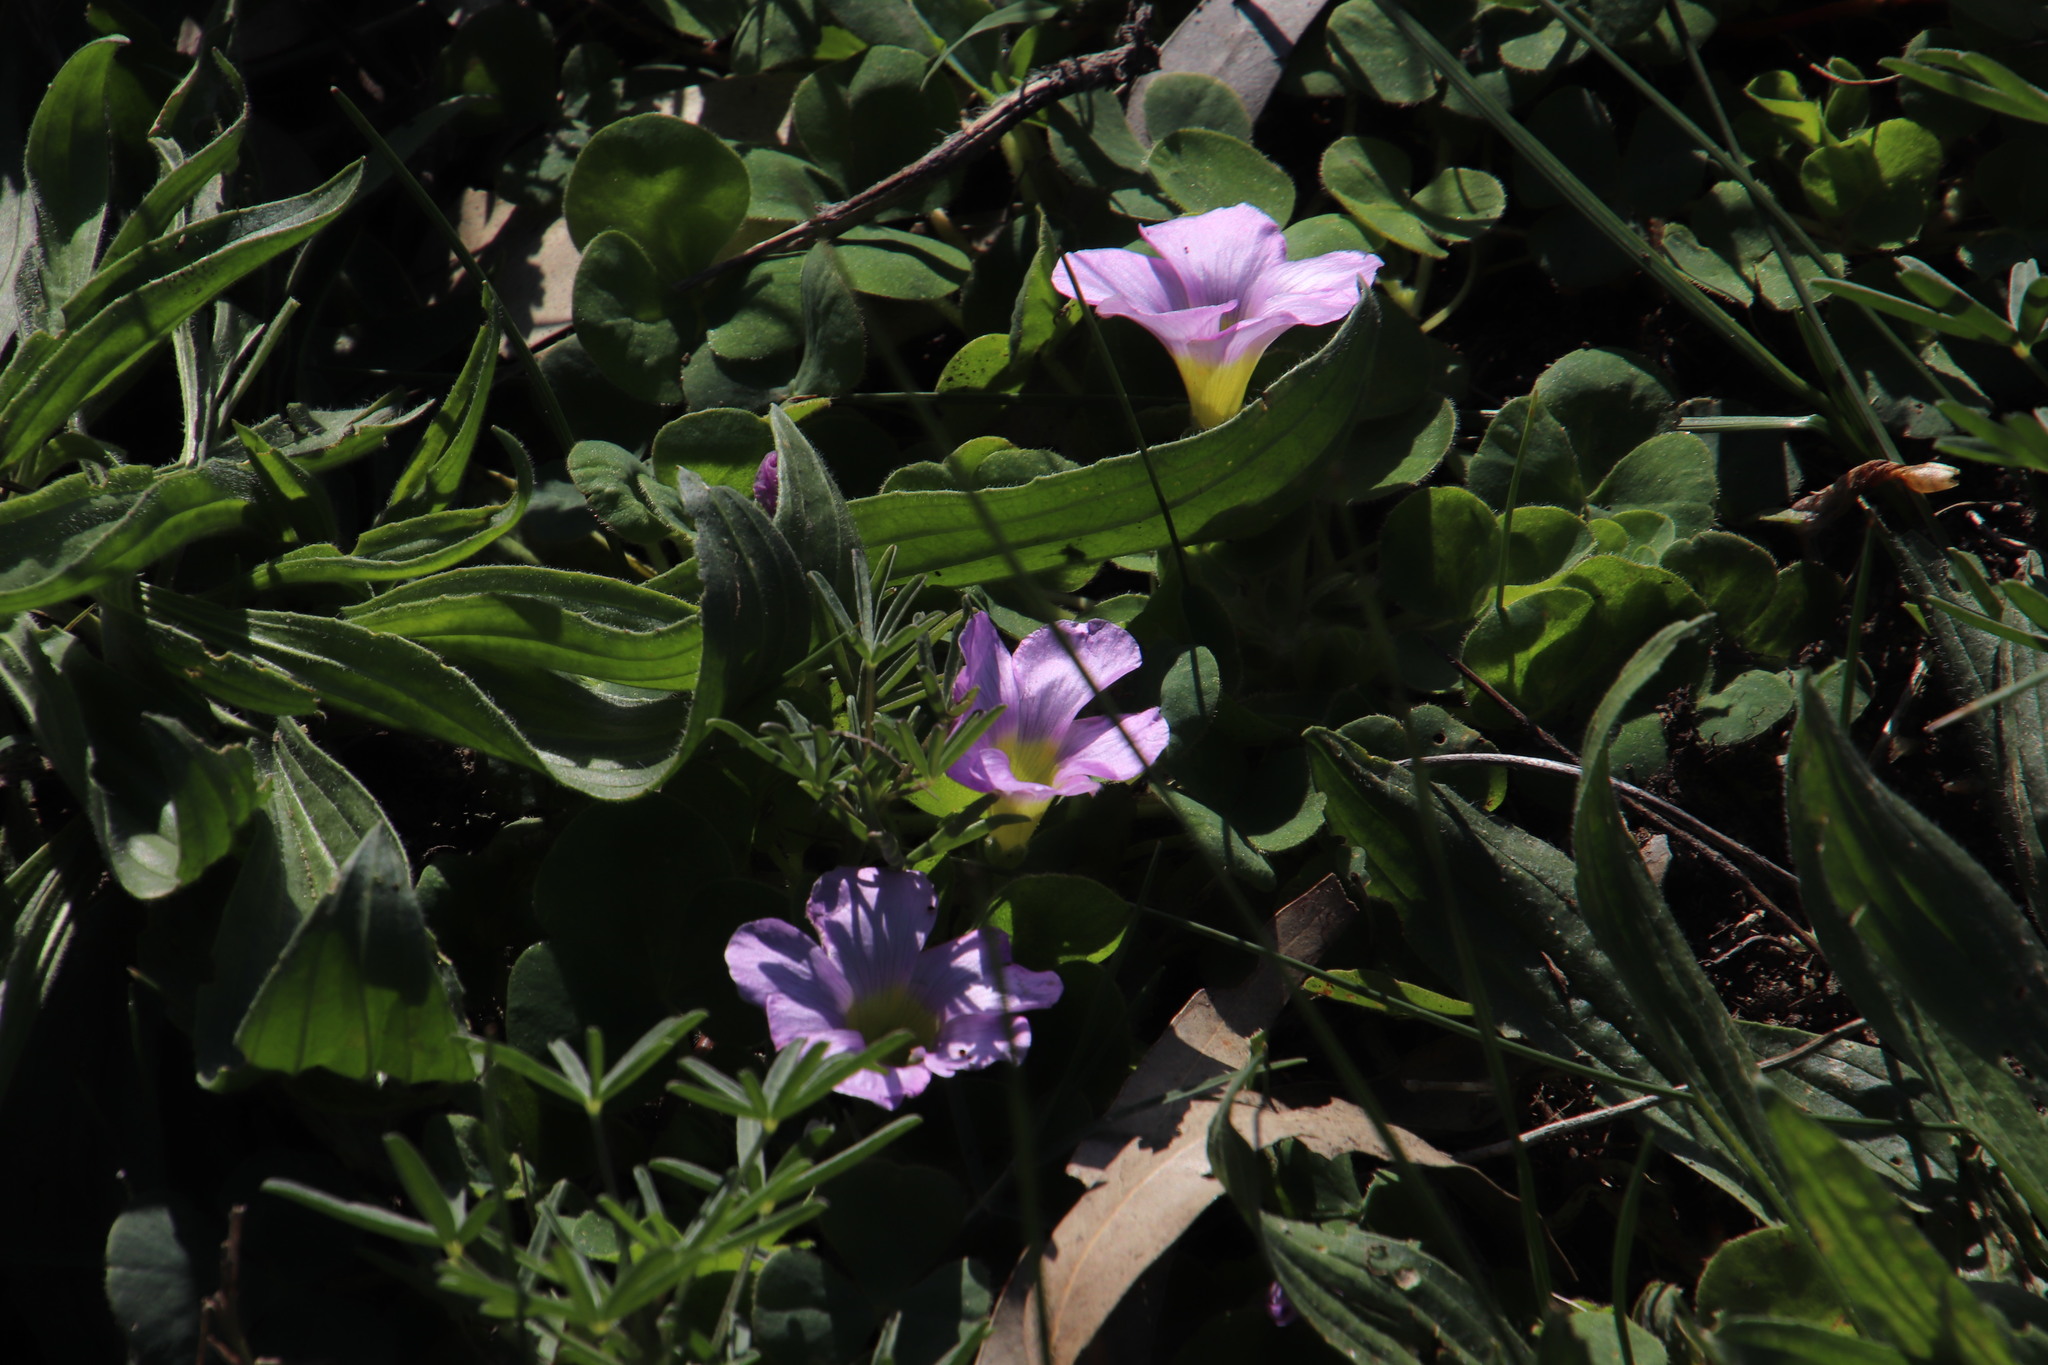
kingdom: Plantae
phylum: Tracheophyta
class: Magnoliopsida
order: Oxalidales
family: Oxalidaceae
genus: Oxalis
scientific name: Oxalis purpurea
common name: Purple woodsorrel
